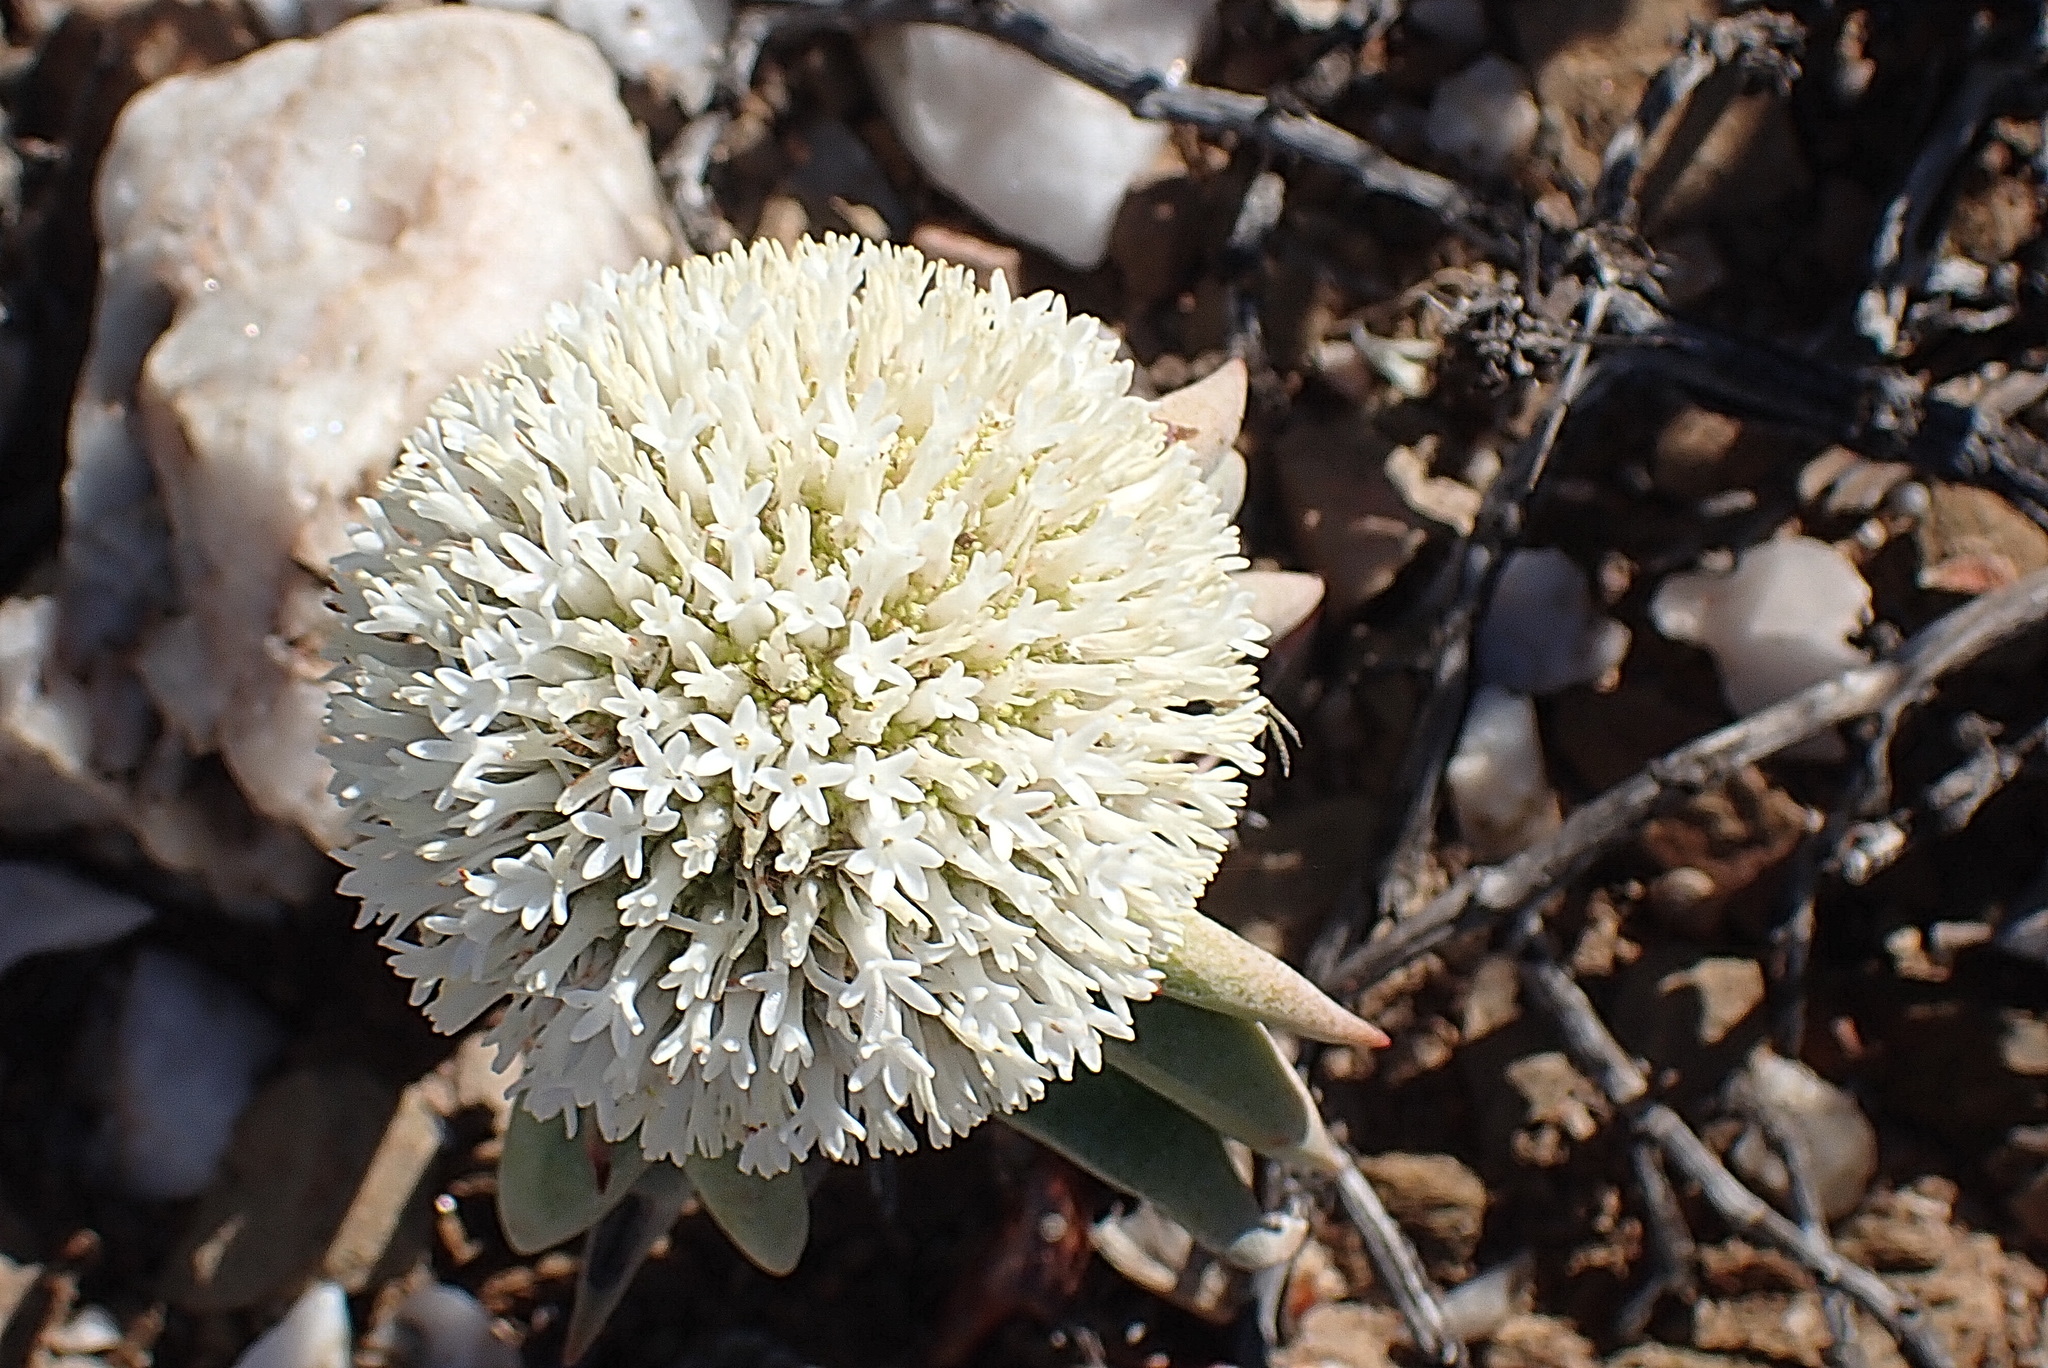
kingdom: Plantae
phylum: Tracheophyta
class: Magnoliopsida
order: Saxifragales
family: Crassulaceae
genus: Crassula
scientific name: Crassula congesta
